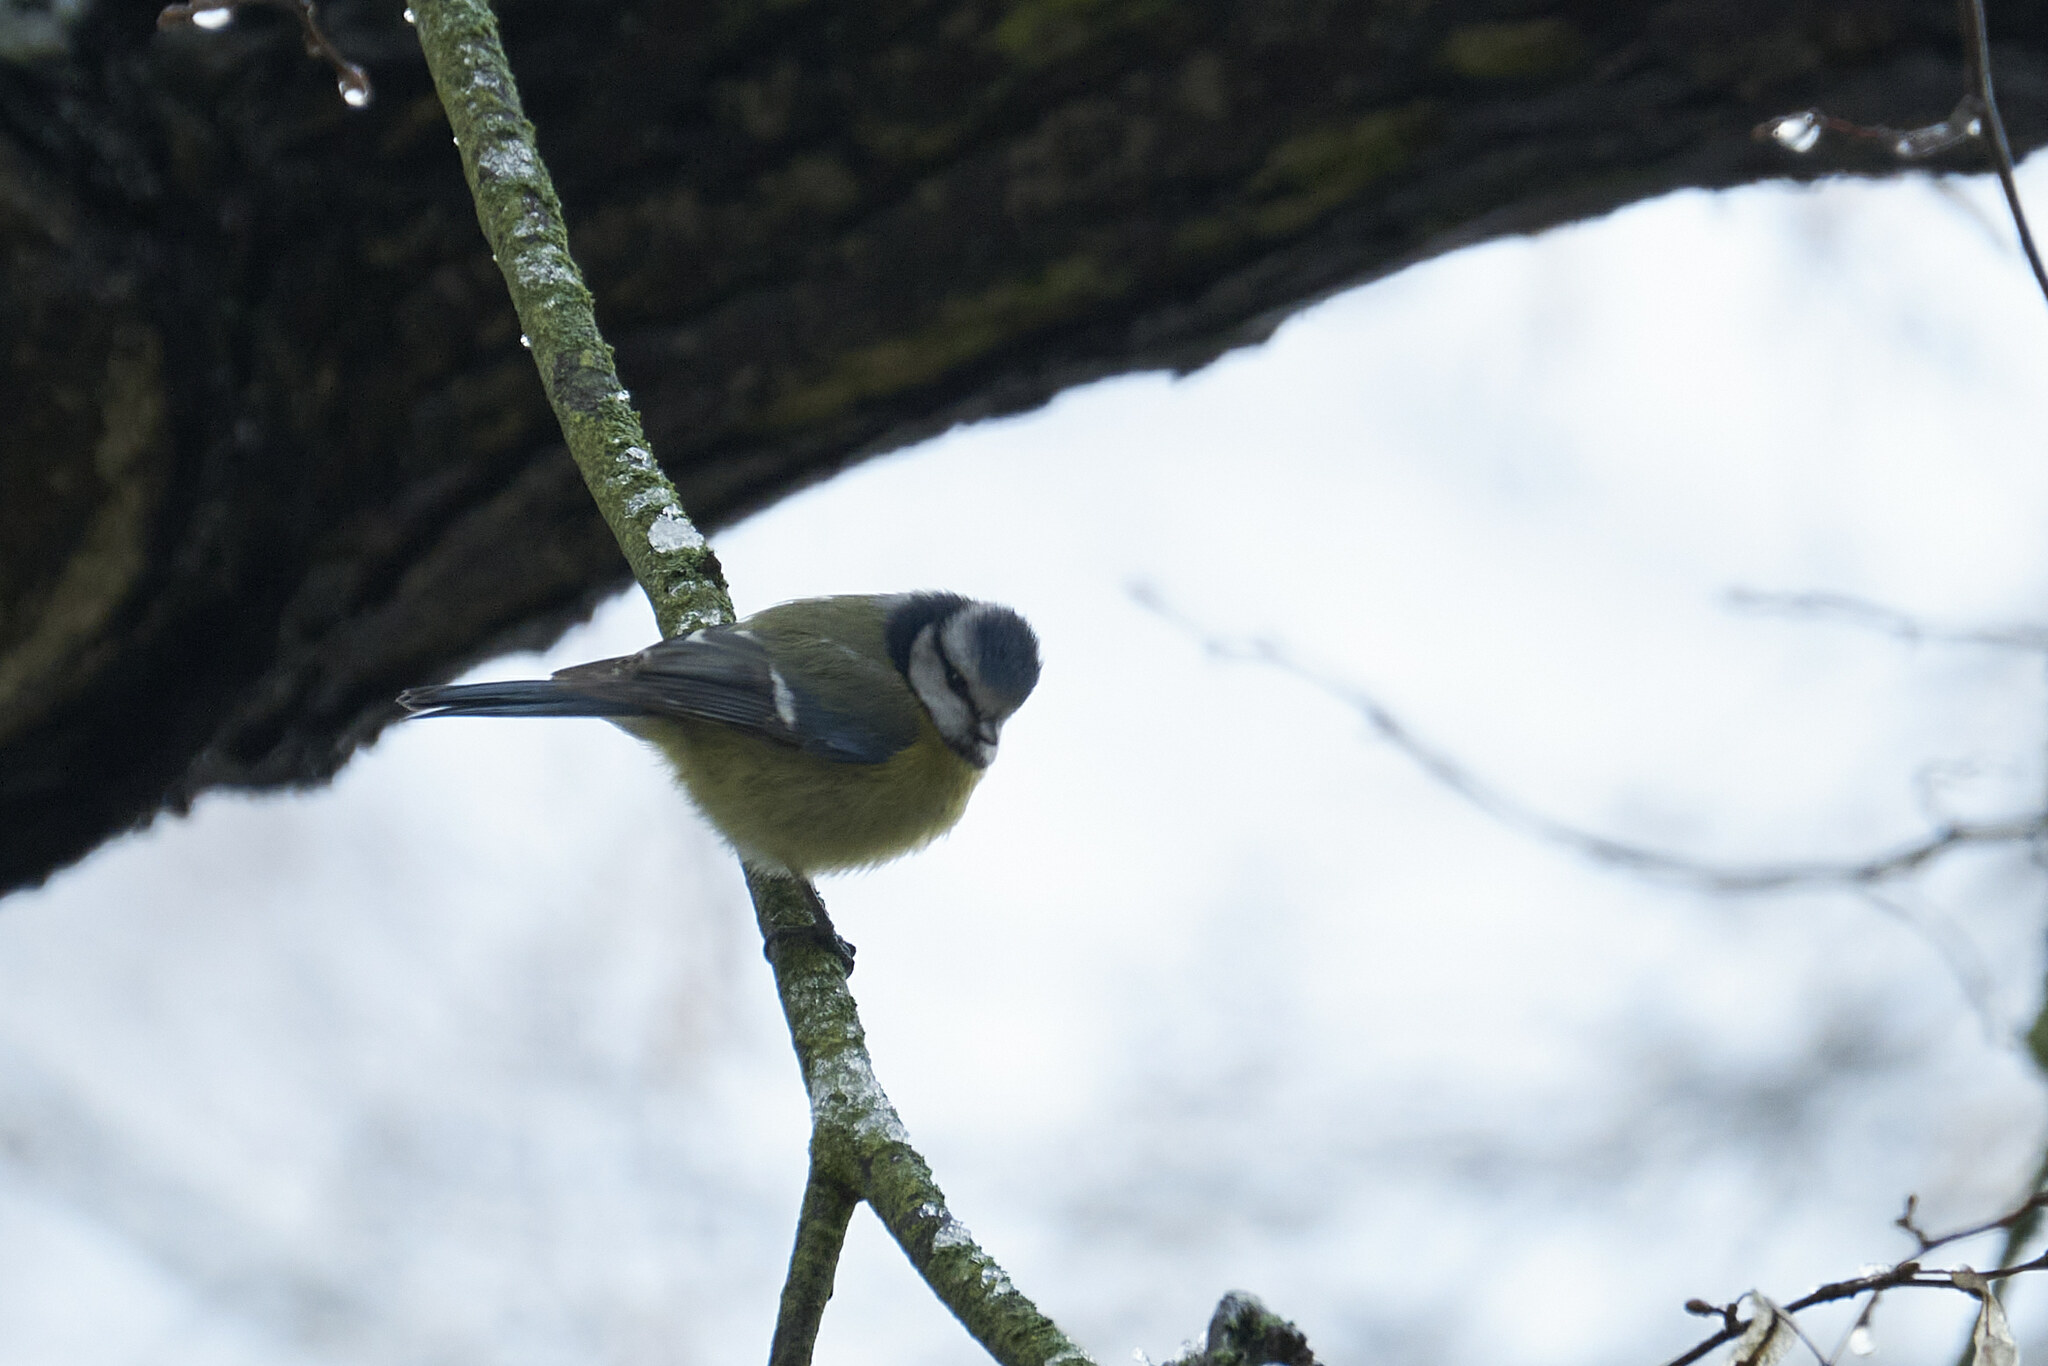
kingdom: Animalia
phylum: Chordata
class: Aves
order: Passeriformes
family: Paridae
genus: Cyanistes
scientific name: Cyanistes caeruleus
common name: Eurasian blue tit
